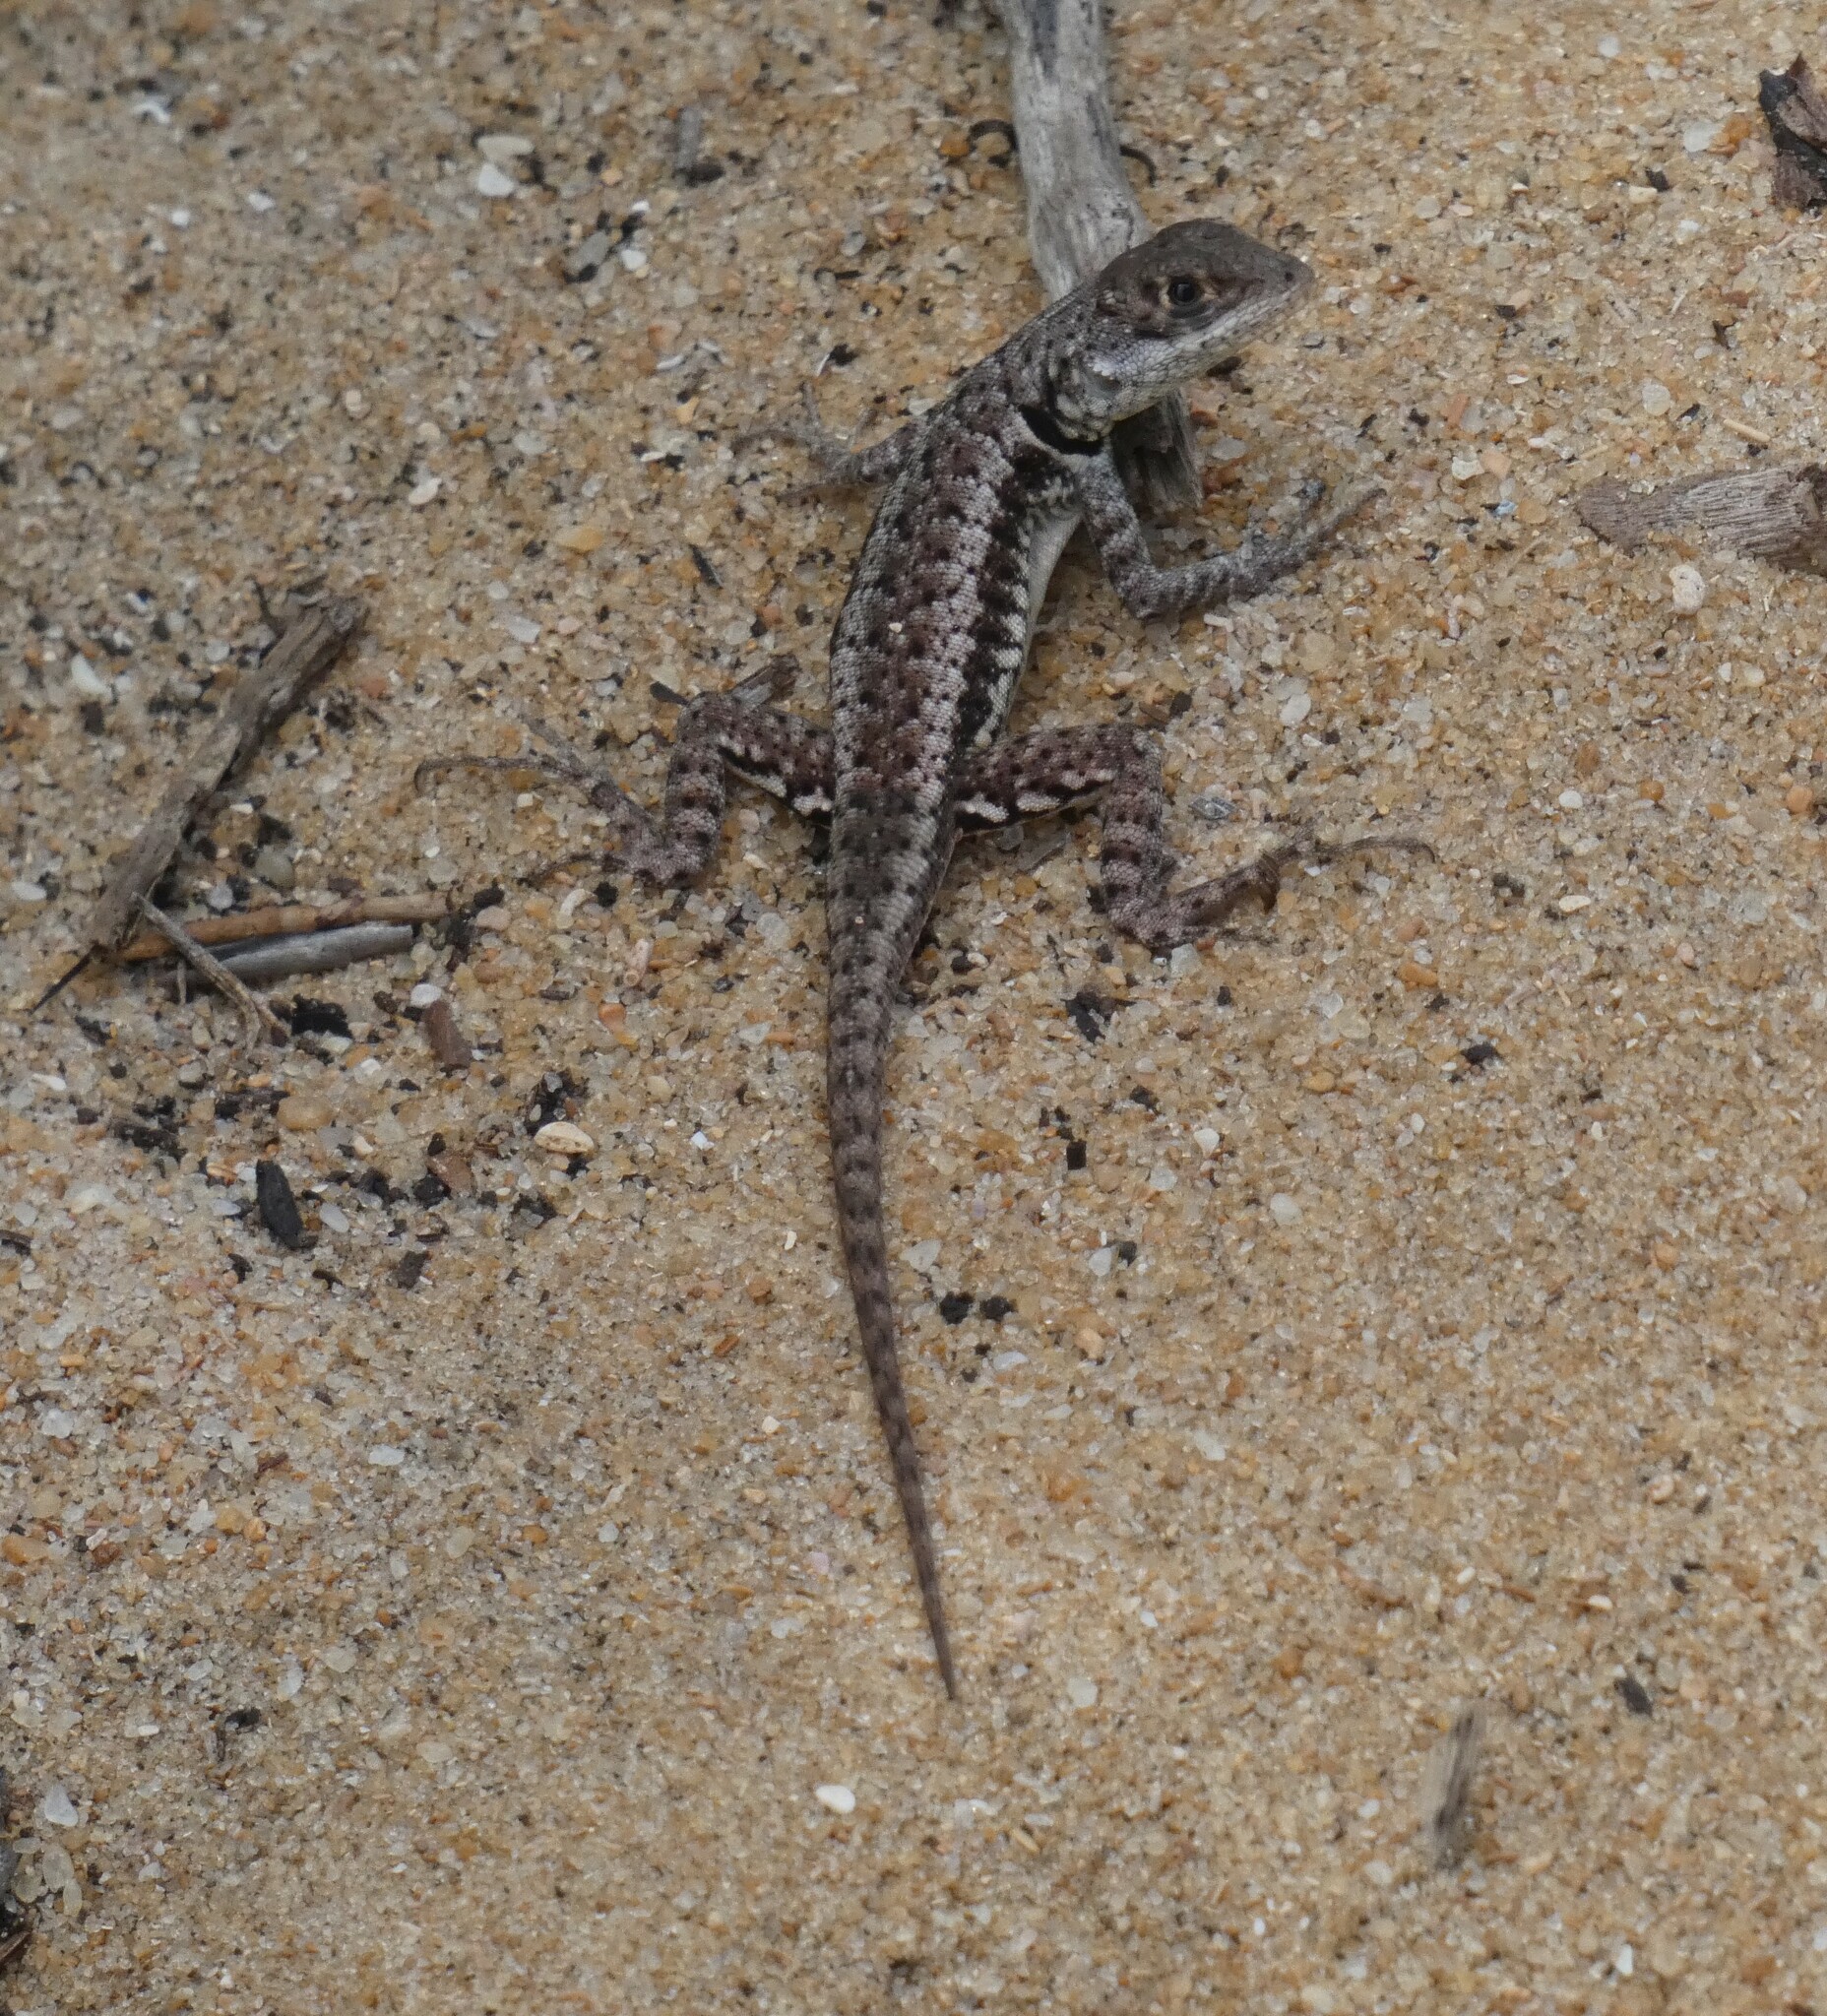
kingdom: Animalia
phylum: Chordata
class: Squamata
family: Tropiduridae
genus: Tropidurus
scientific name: Tropidurus torquatus
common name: Amazon lava lizard
